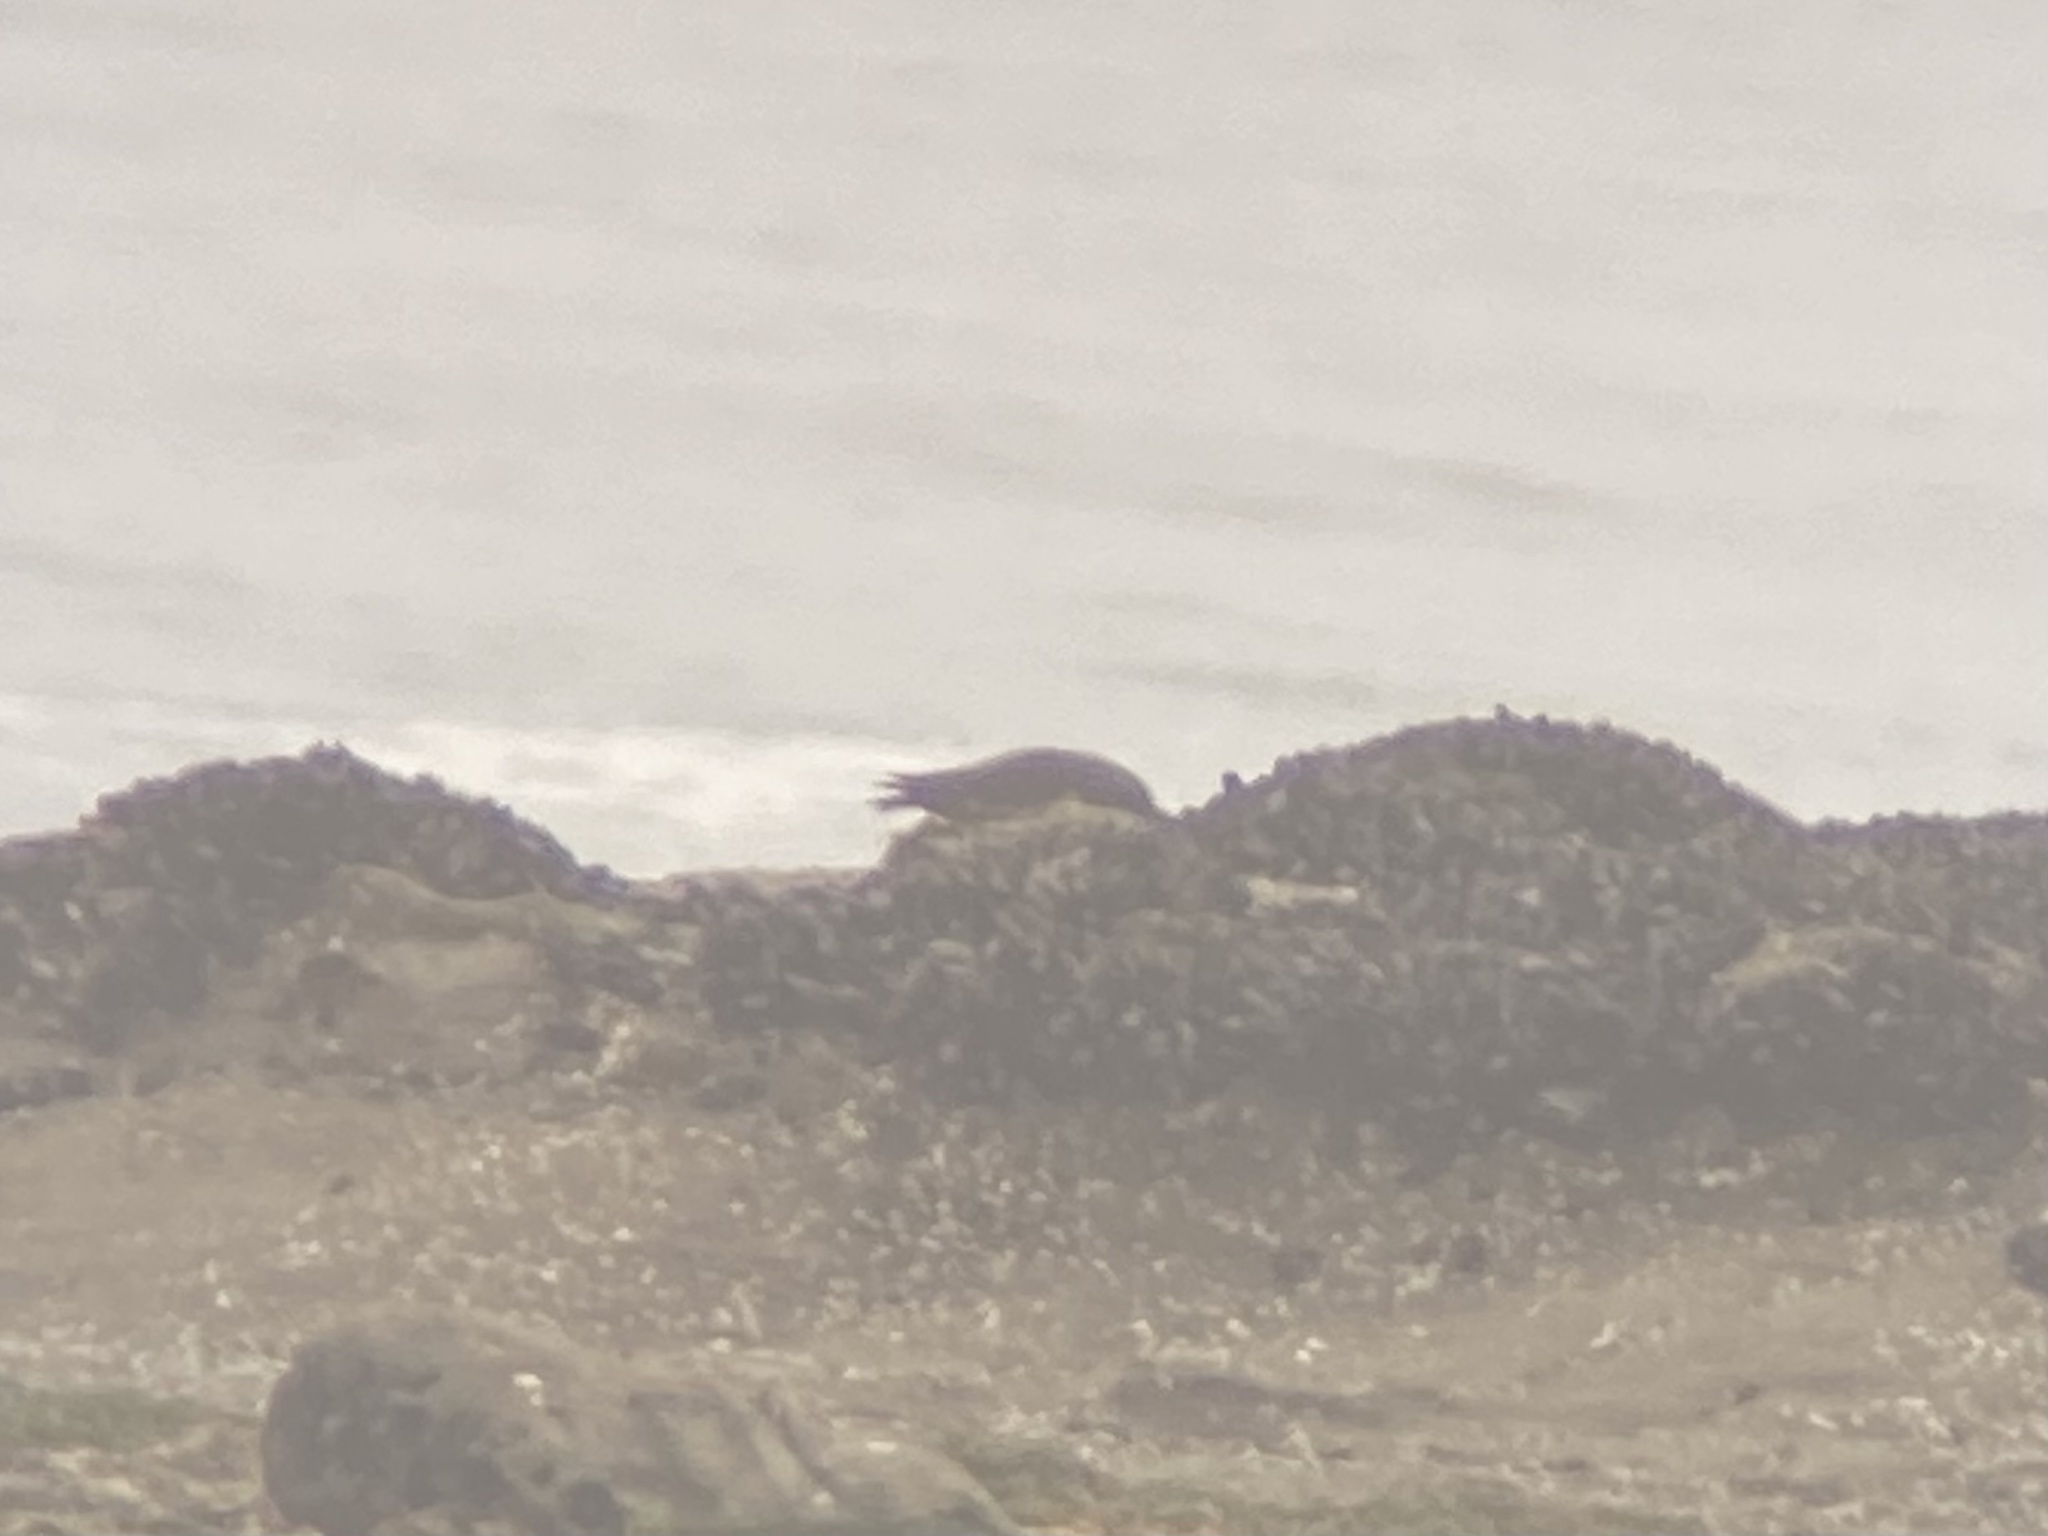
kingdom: Animalia
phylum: Chordata
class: Aves
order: Charadriiformes
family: Haematopodidae
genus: Haematopus
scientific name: Haematopus bachmani
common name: Black oystercatcher
